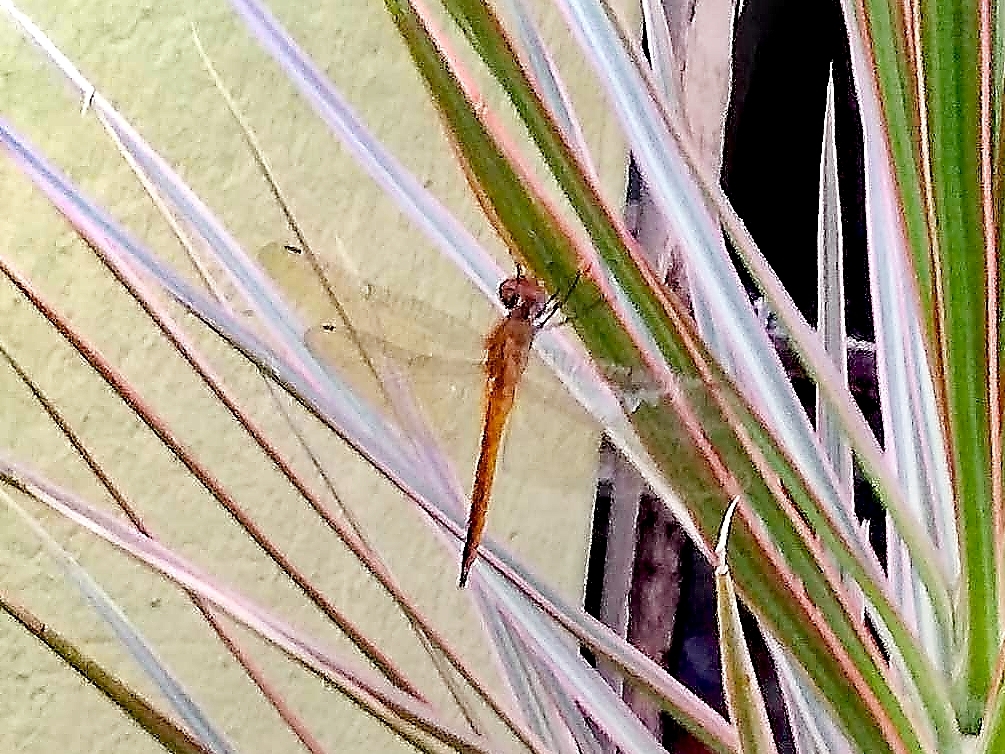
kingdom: Animalia
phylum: Arthropoda
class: Insecta
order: Odonata
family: Libellulidae
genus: Pantala
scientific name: Pantala flavescens
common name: Wandering glider
